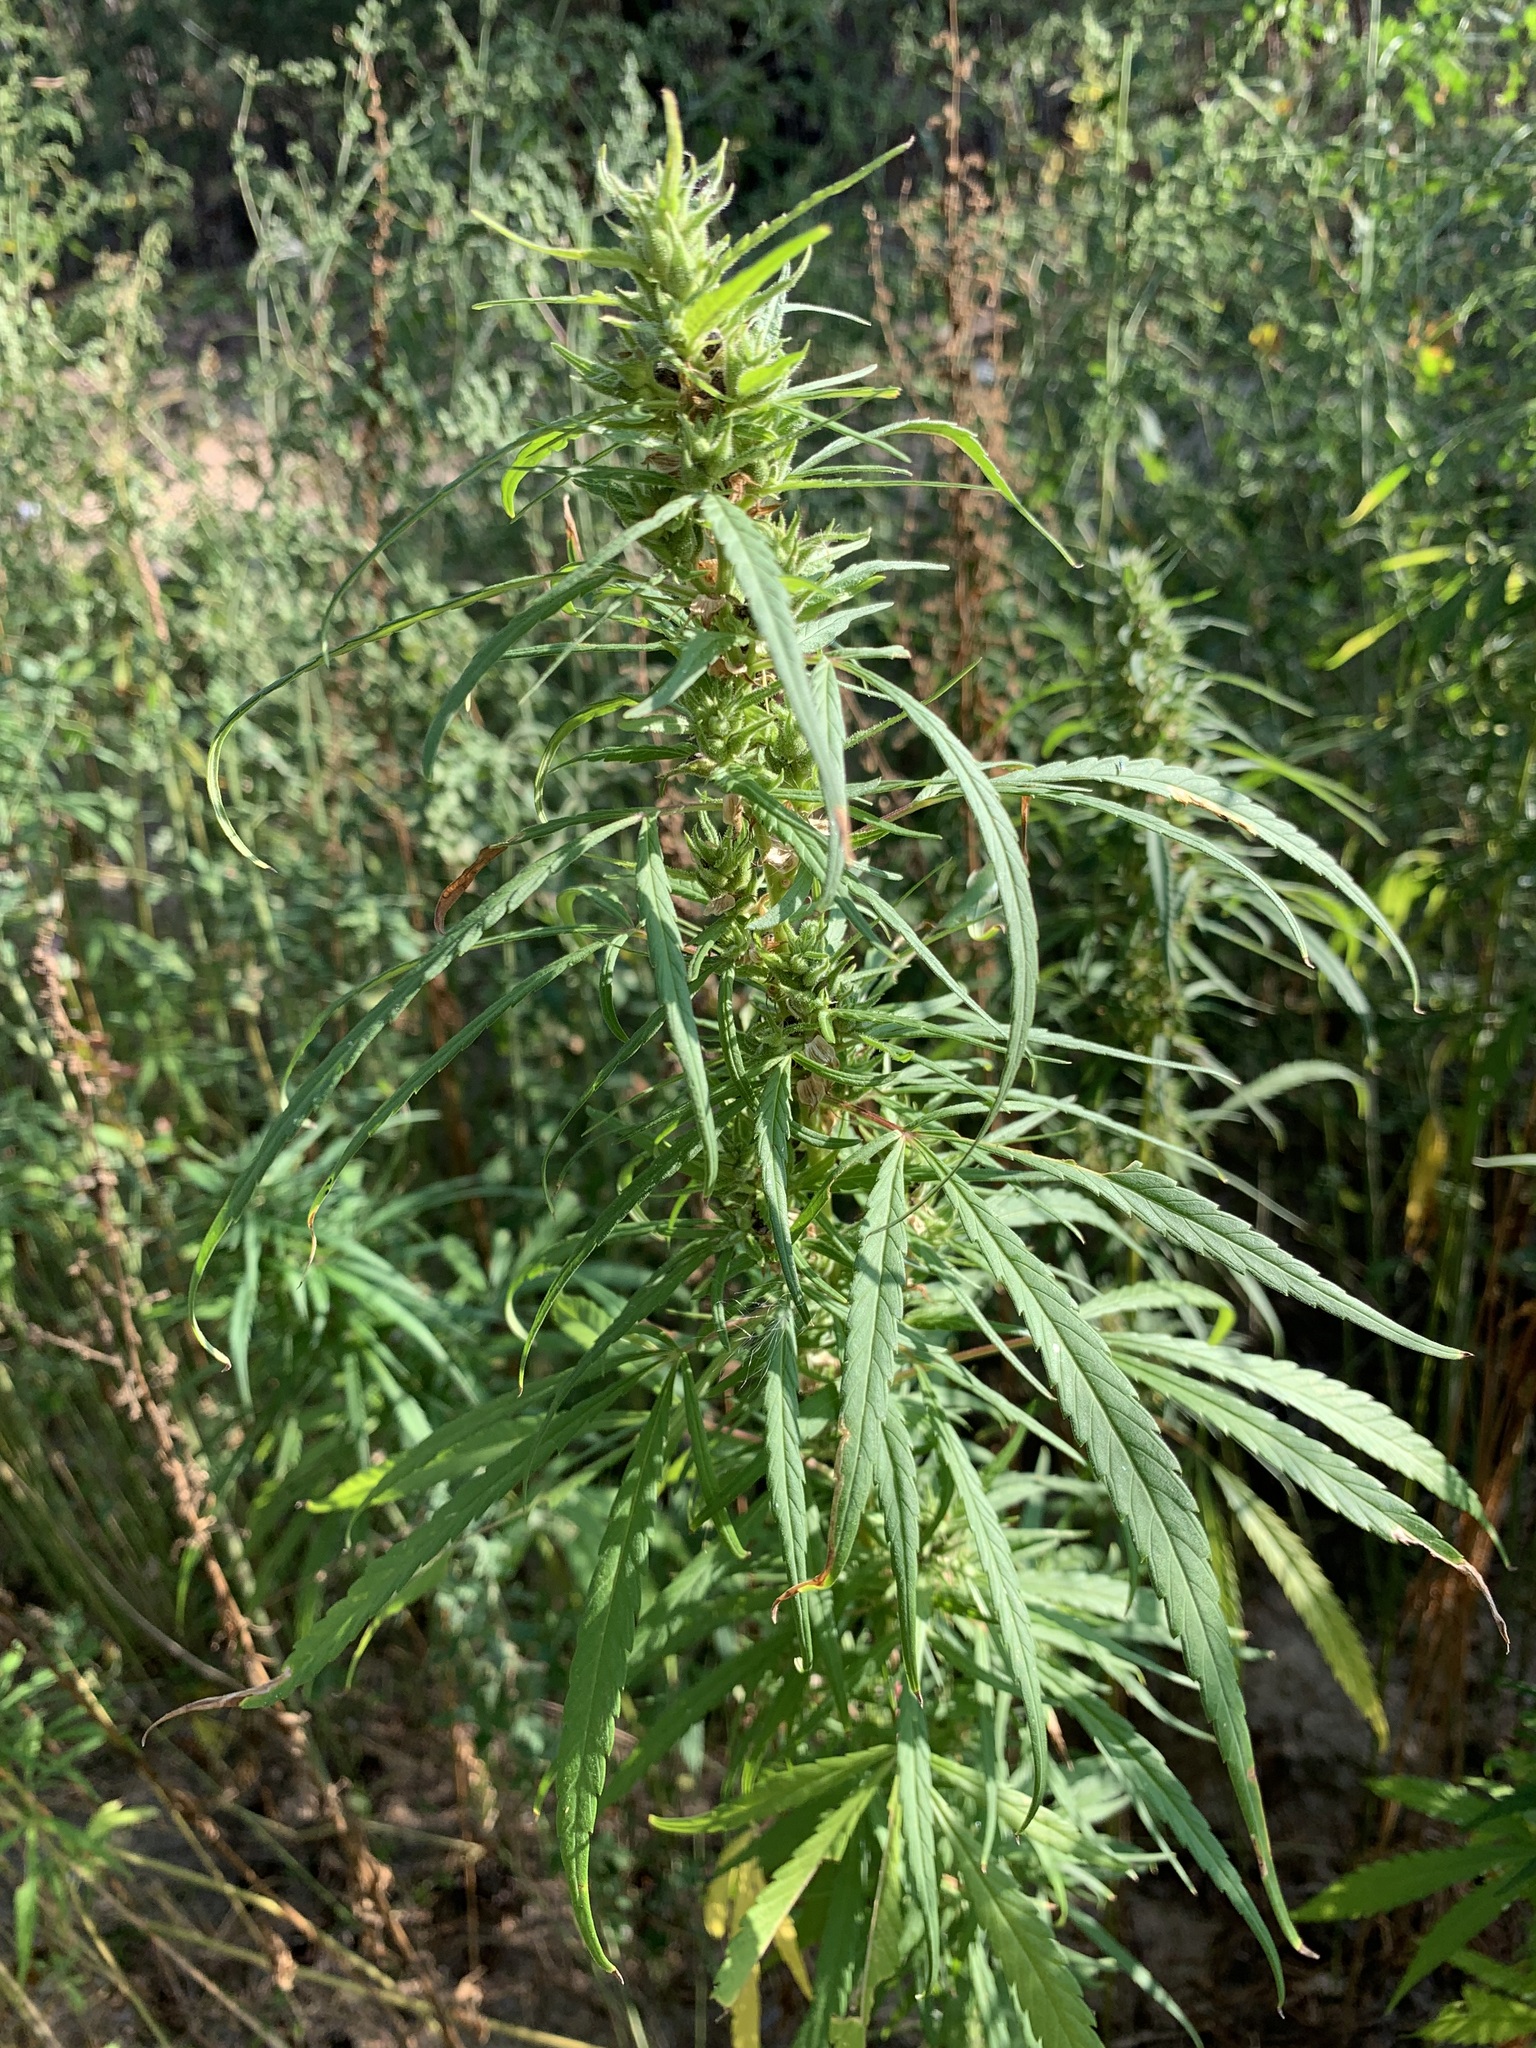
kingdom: Plantae
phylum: Tracheophyta
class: Magnoliopsida
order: Rosales
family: Cannabaceae
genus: Cannabis
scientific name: Cannabis sativa
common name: Hemp
